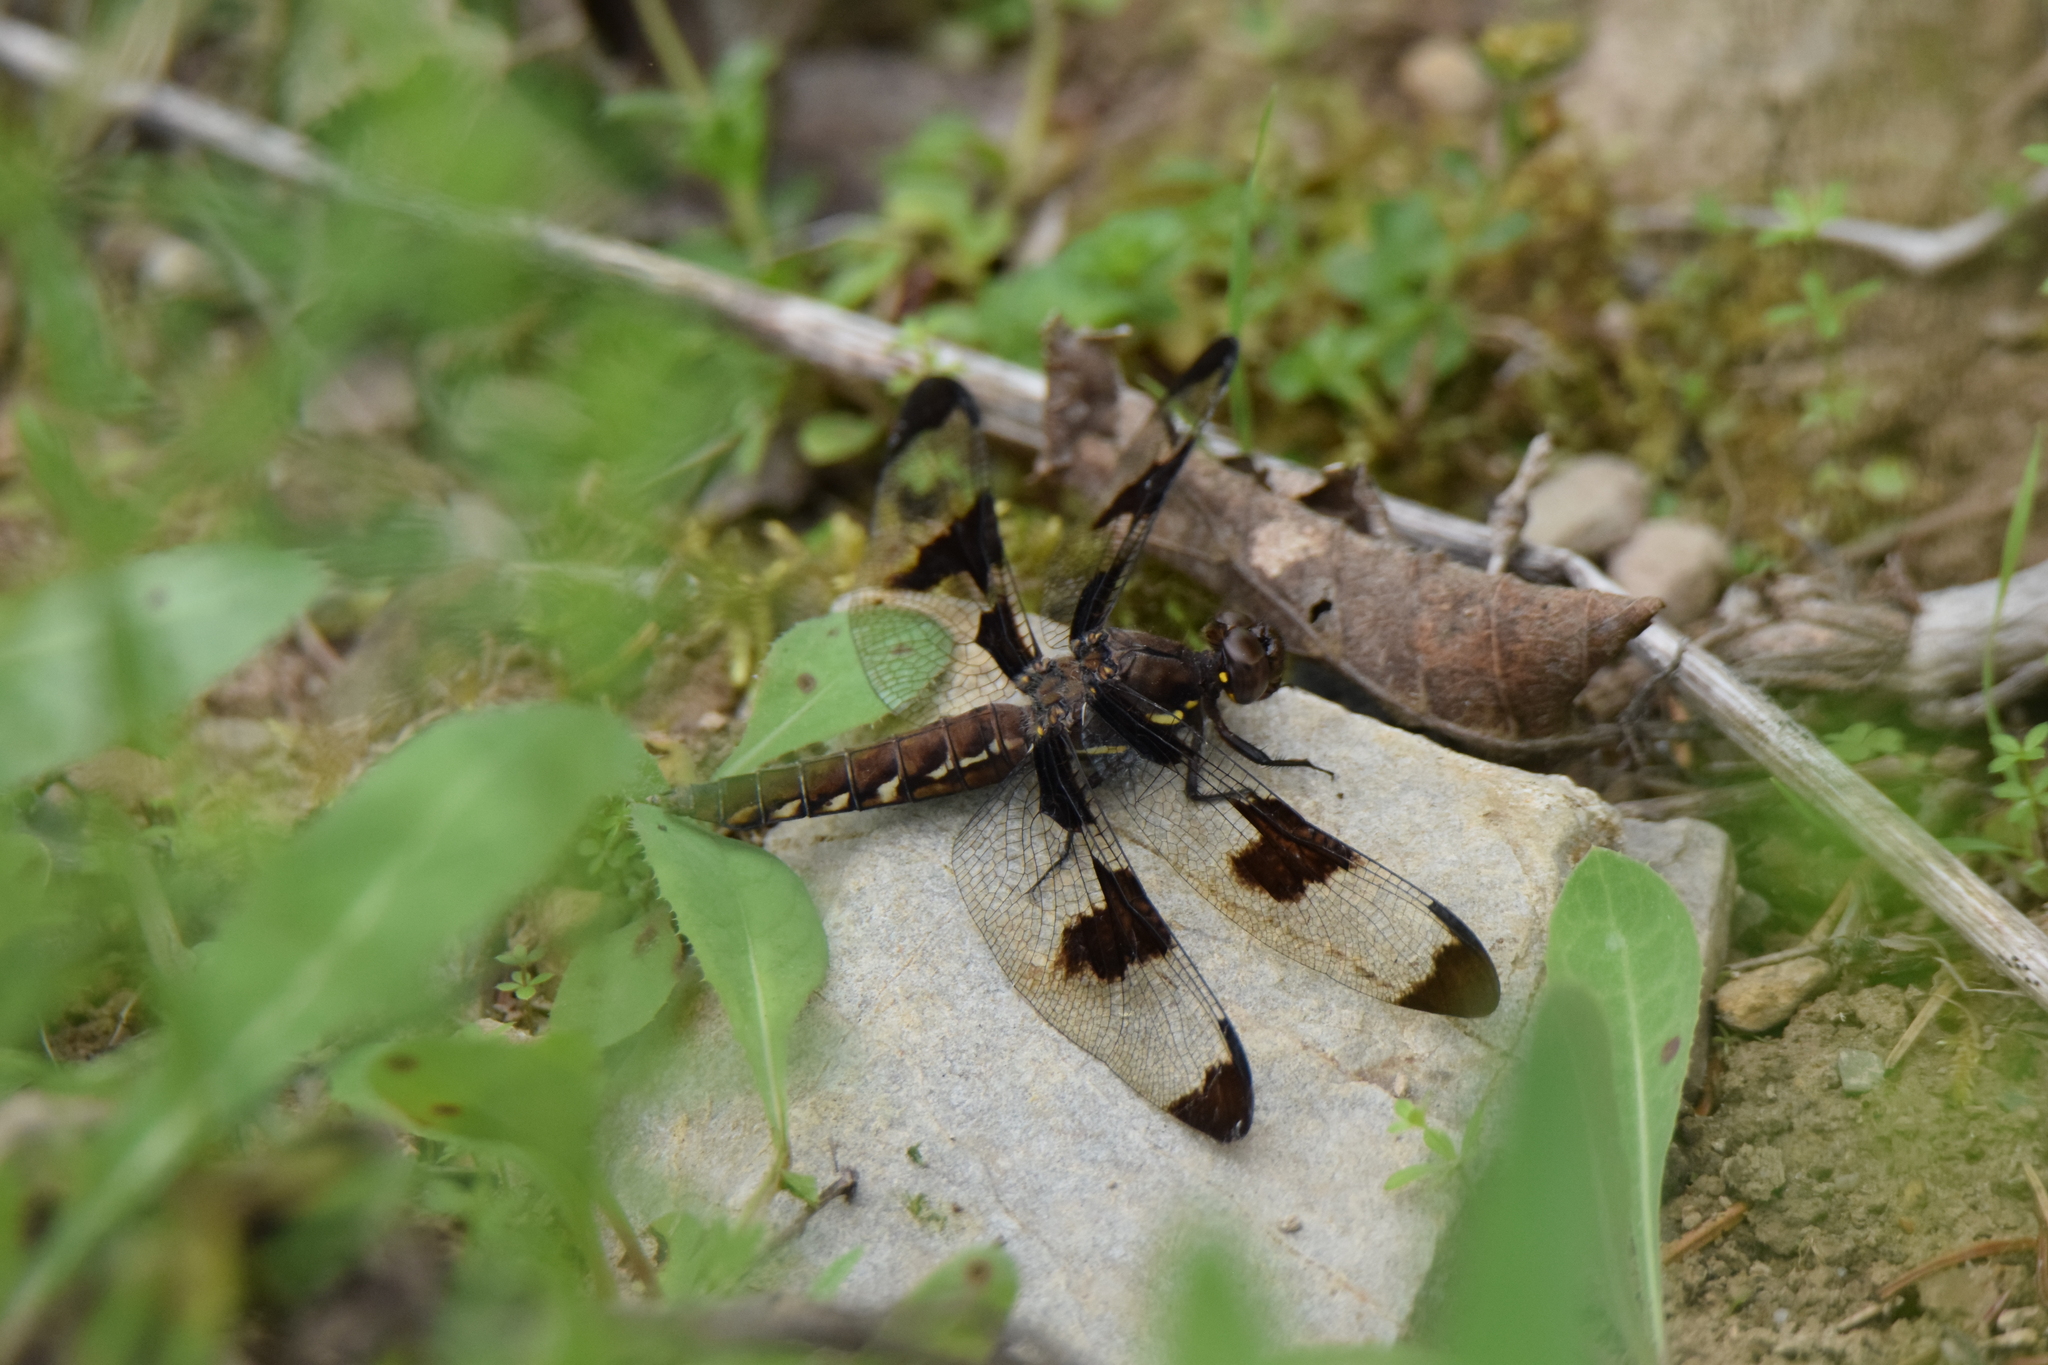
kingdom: Animalia
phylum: Arthropoda
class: Insecta
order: Odonata
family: Libellulidae
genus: Plathemis
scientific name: Plathemis lydia
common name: Common whitetail
